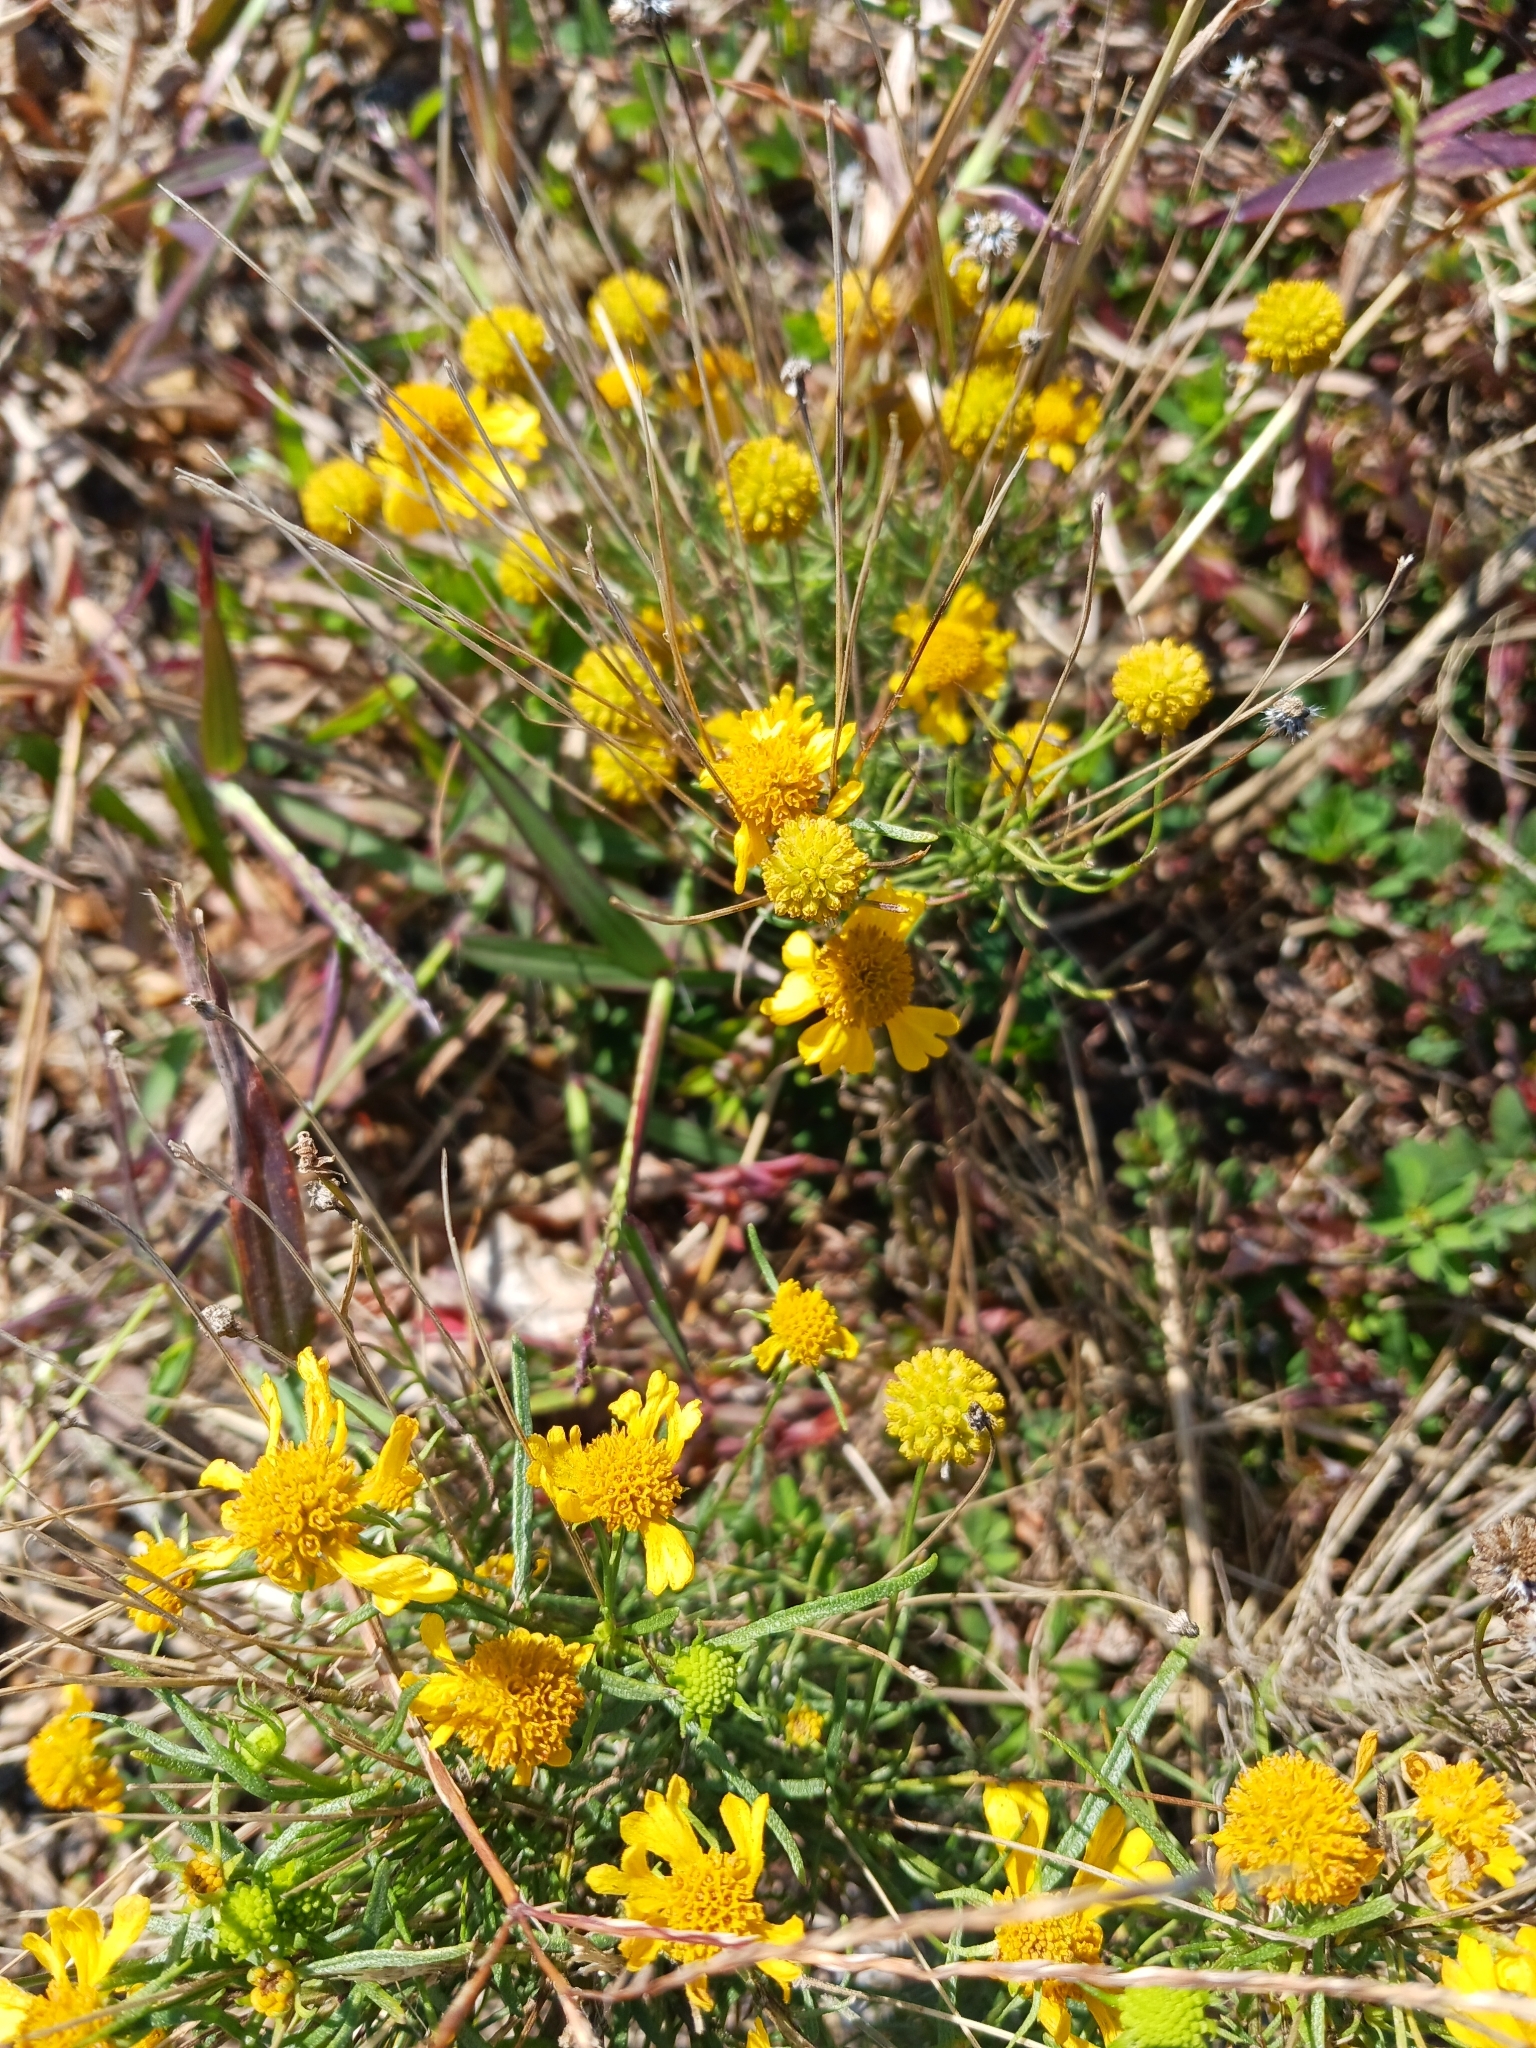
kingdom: Plantae
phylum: Tracheophyta
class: Magnoliopsida
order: Asterales
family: Asteraceae
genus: Helenium
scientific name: Helenium amarum
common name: Bitter sneezeweed
